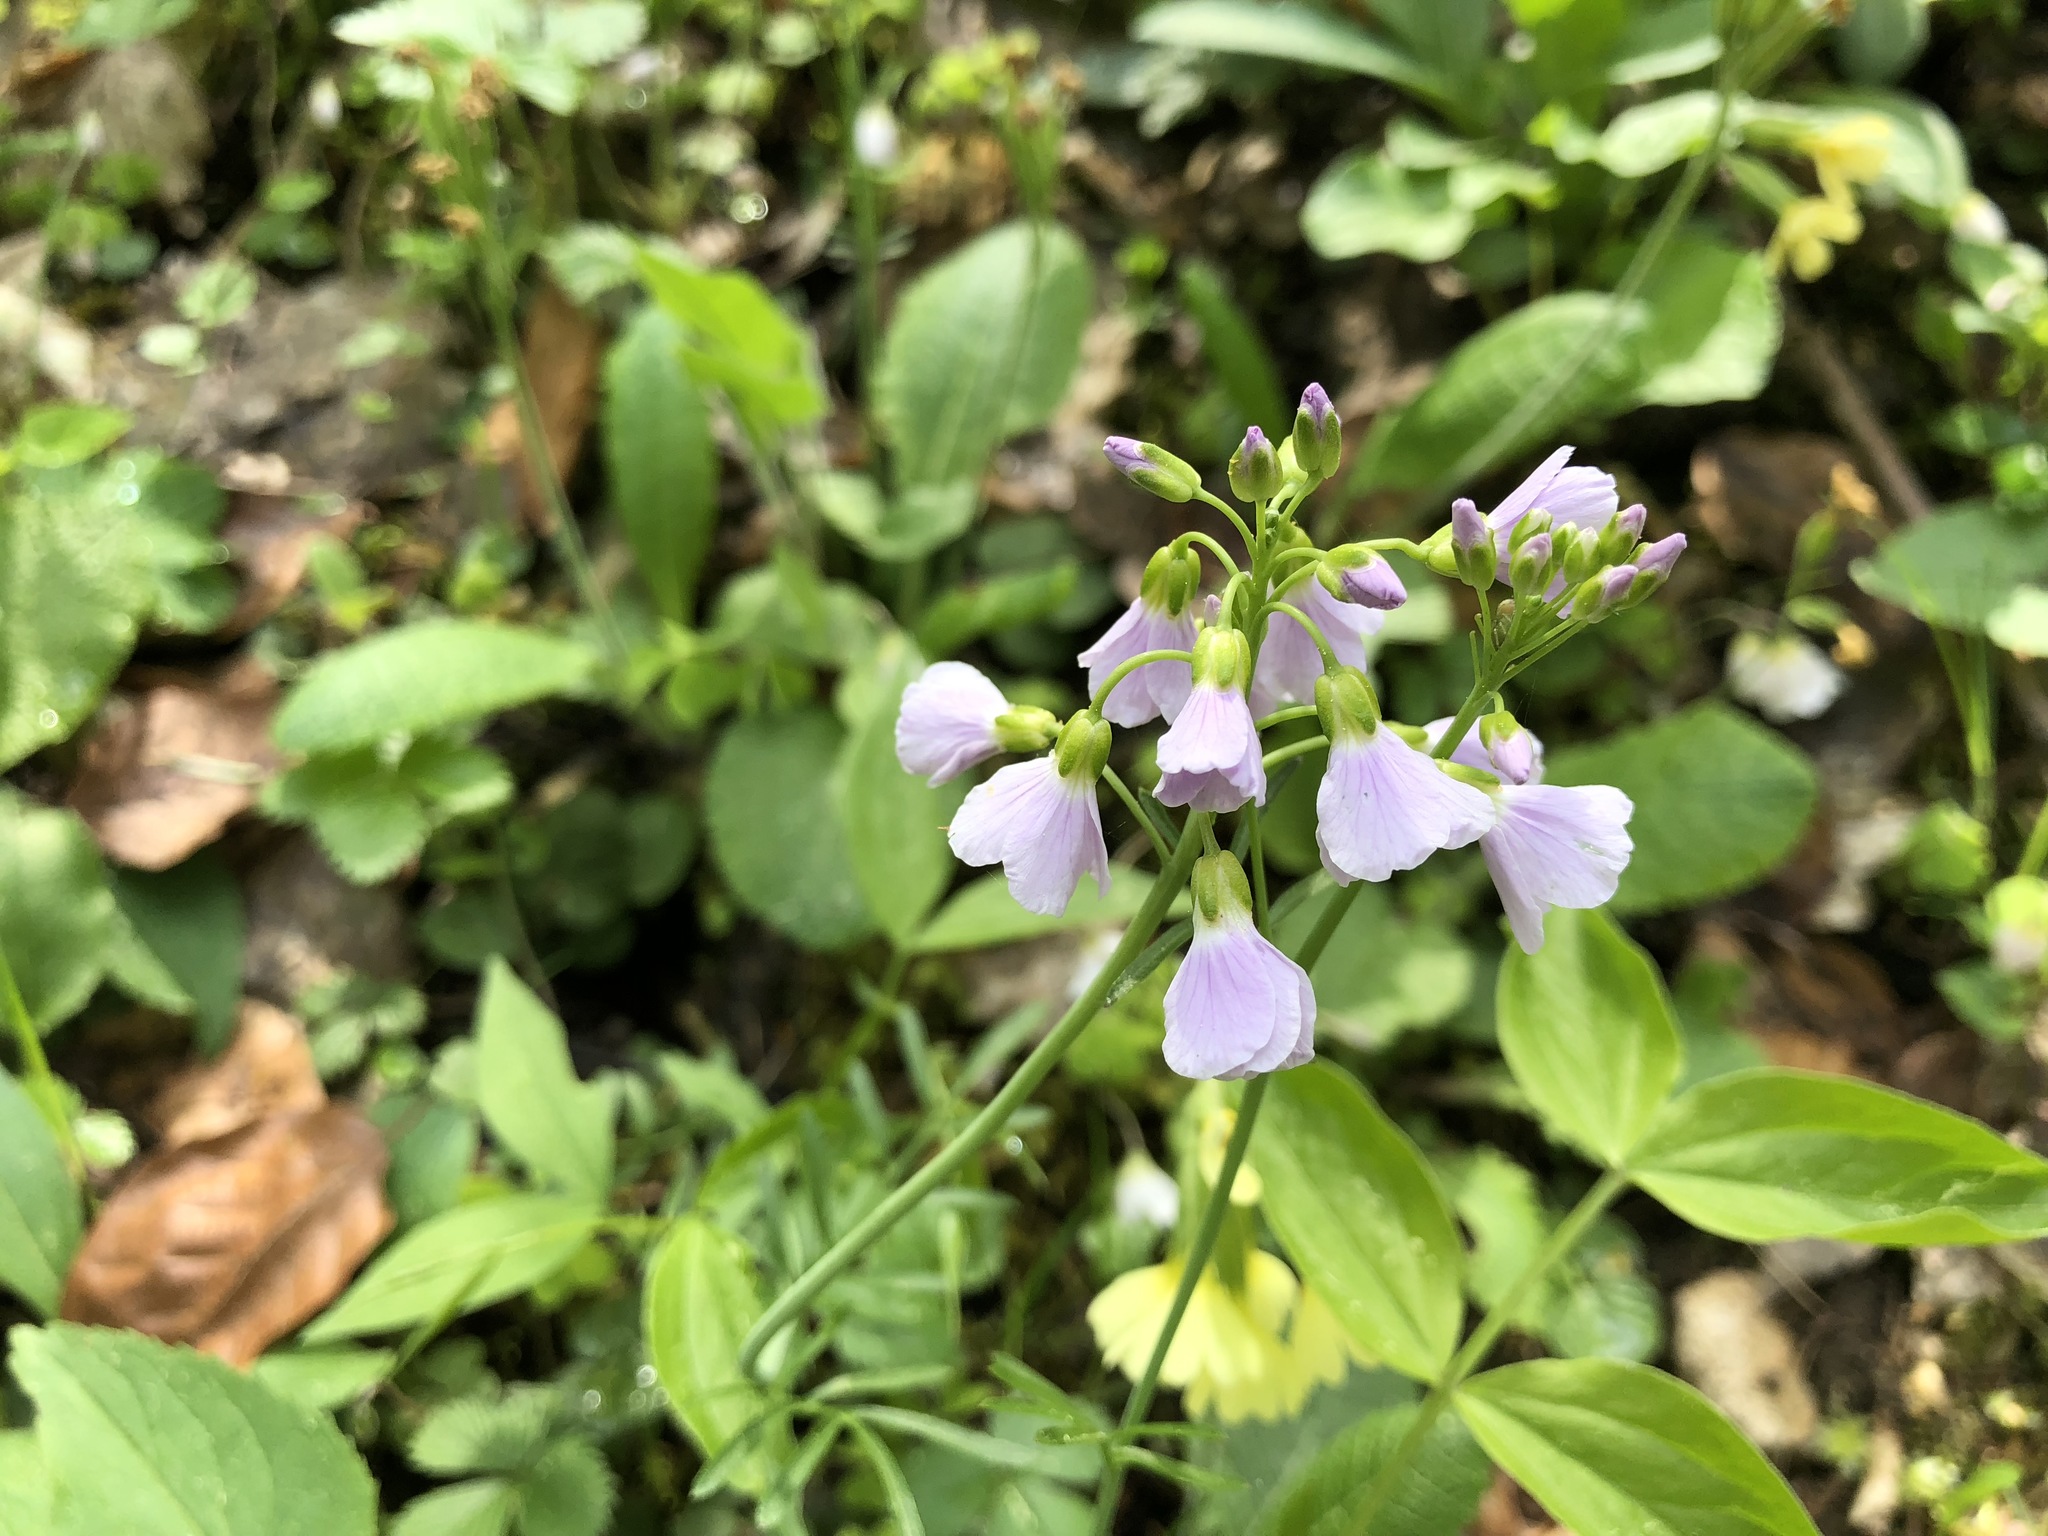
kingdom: Plantae
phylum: Tracheophyta
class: Magnoliopsida
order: Brassicales
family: Brassicaceae
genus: Cardamine
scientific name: Cardamine pratensis
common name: Cuckoo flower
